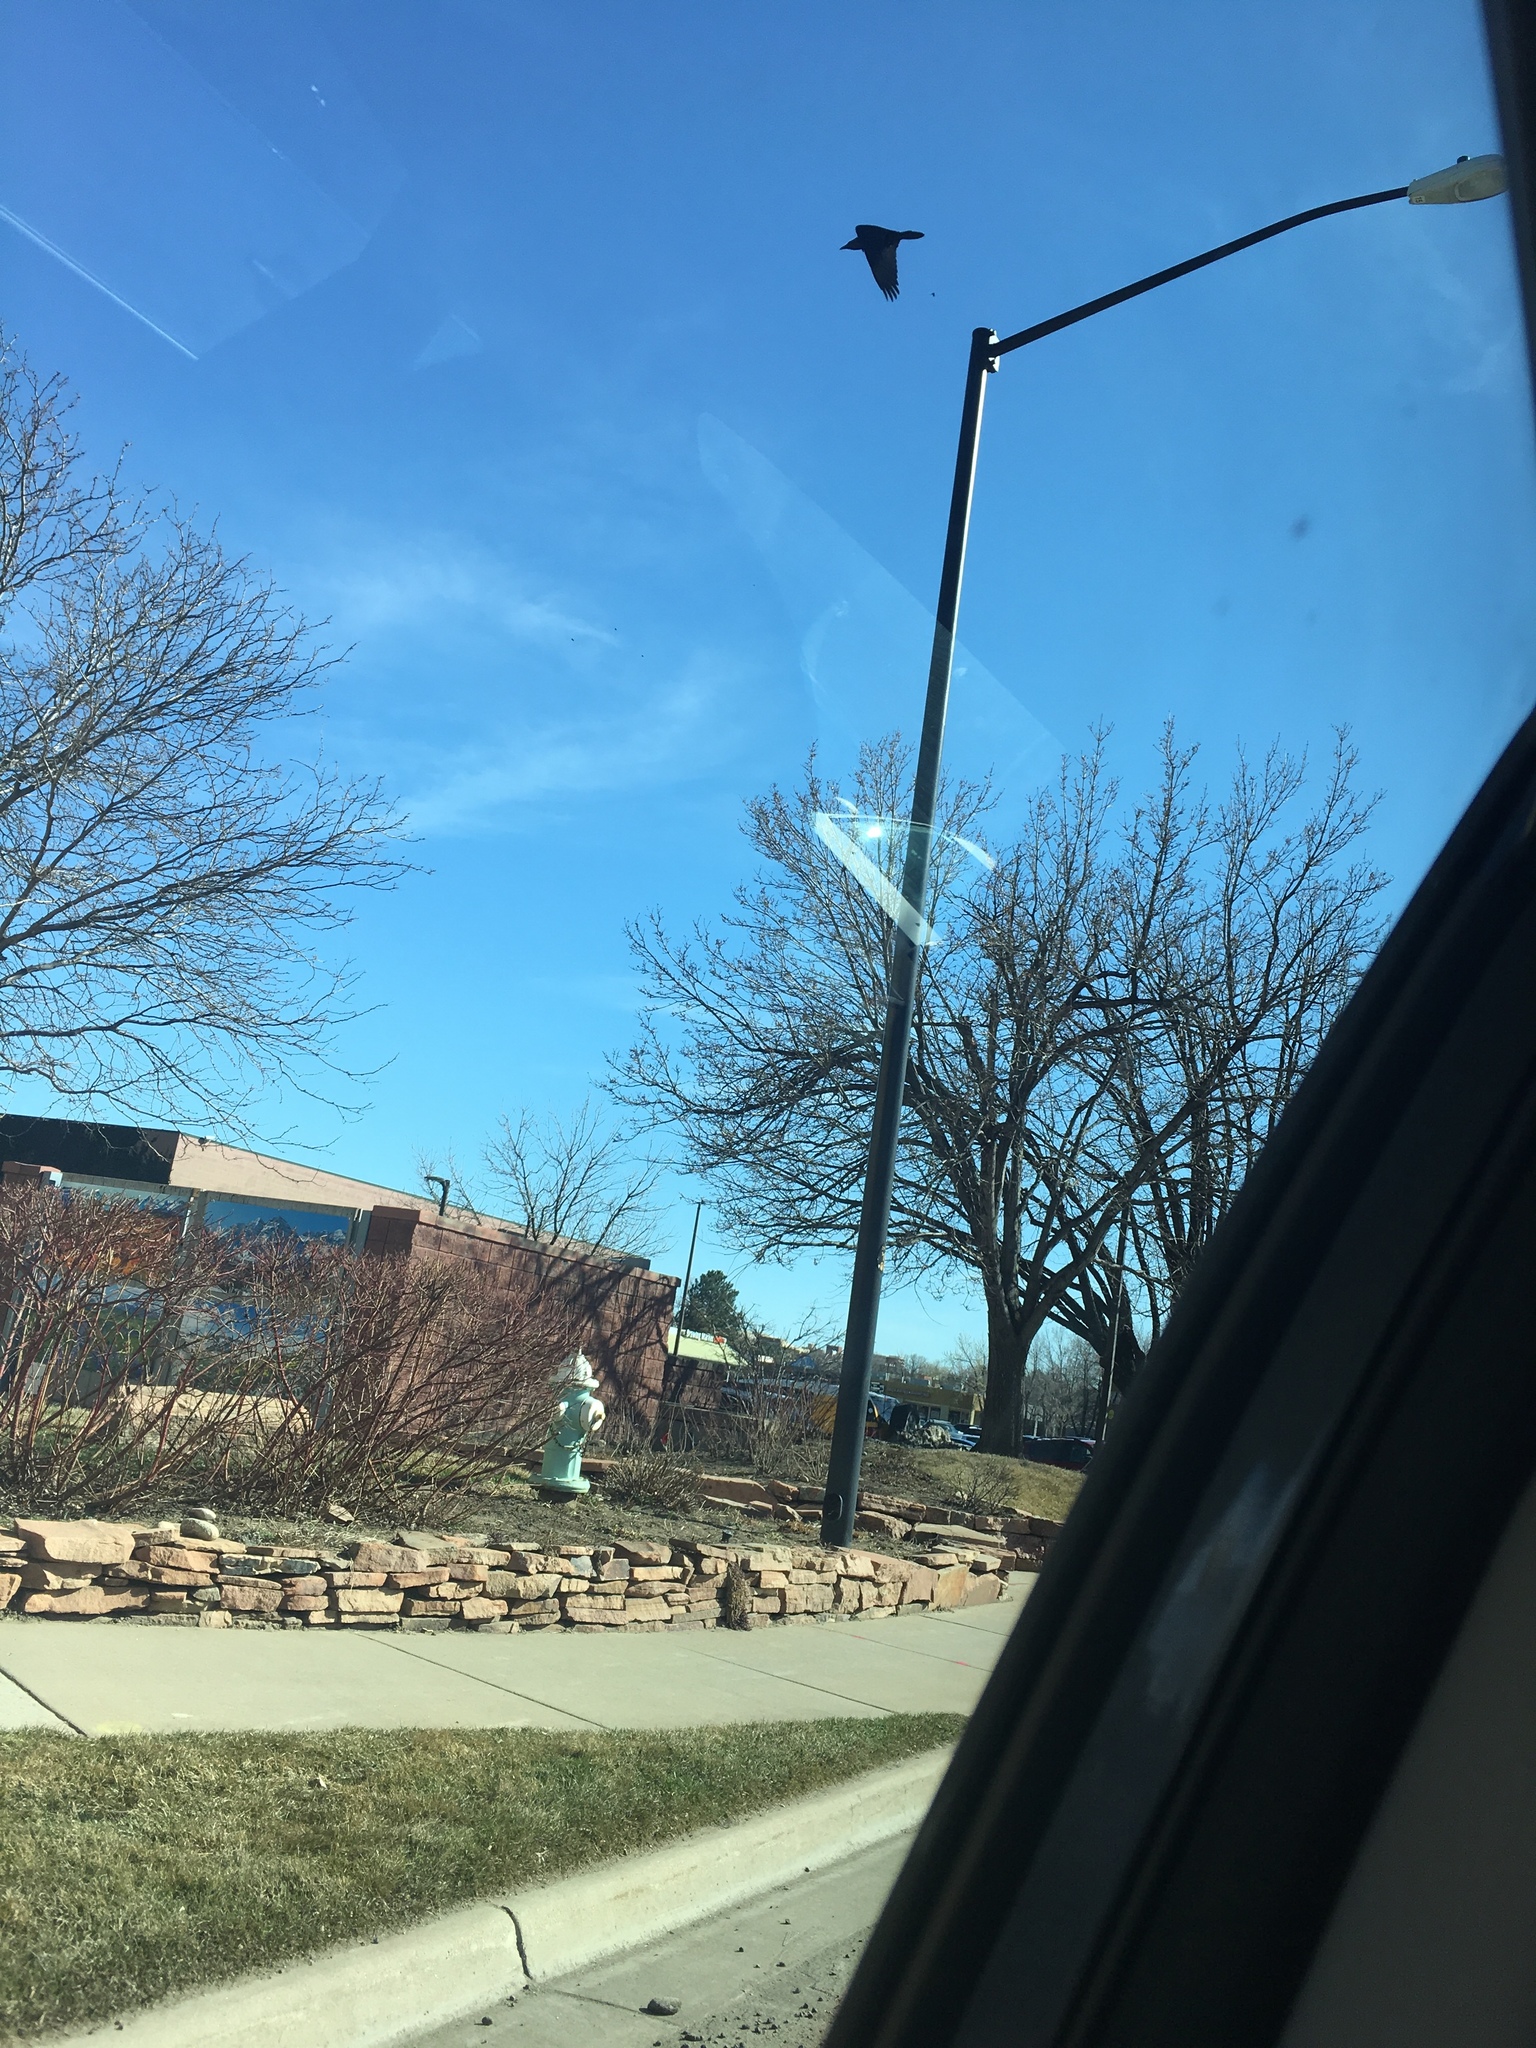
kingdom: Animalia
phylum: Chordata
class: Aves
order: Passeriformes
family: Corvidae
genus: Corvus
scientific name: Corvus corax
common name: Common raven
